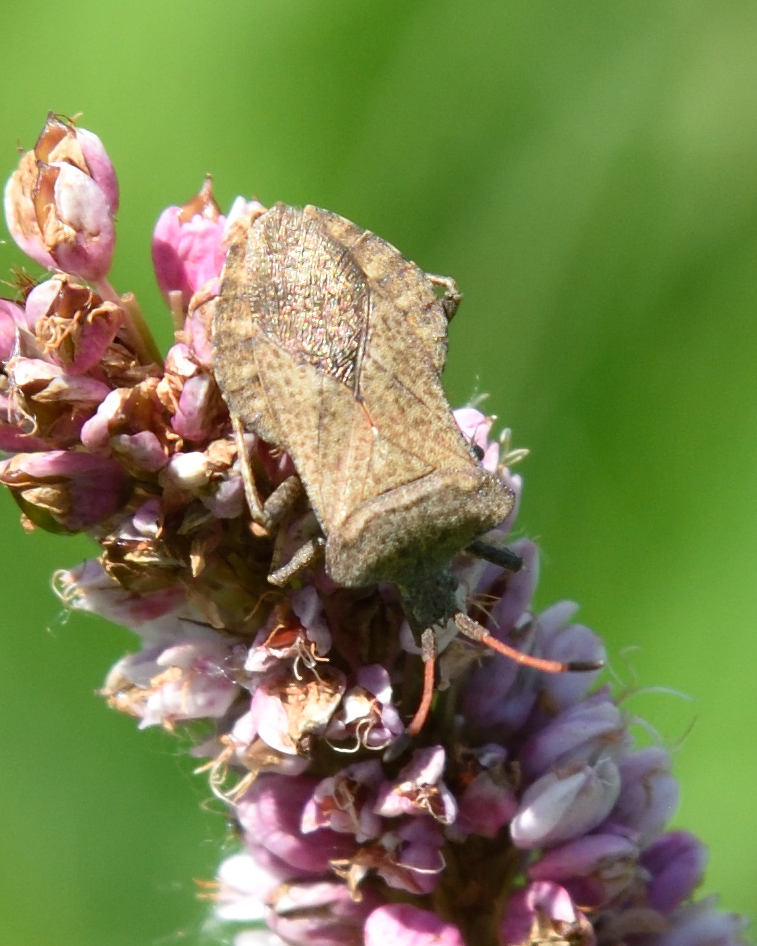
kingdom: Animalia
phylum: Arthropoda
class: Insecta
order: Hemiptera
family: Coreidae
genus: Coreus
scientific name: Coreus marginatus
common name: Dock bug
